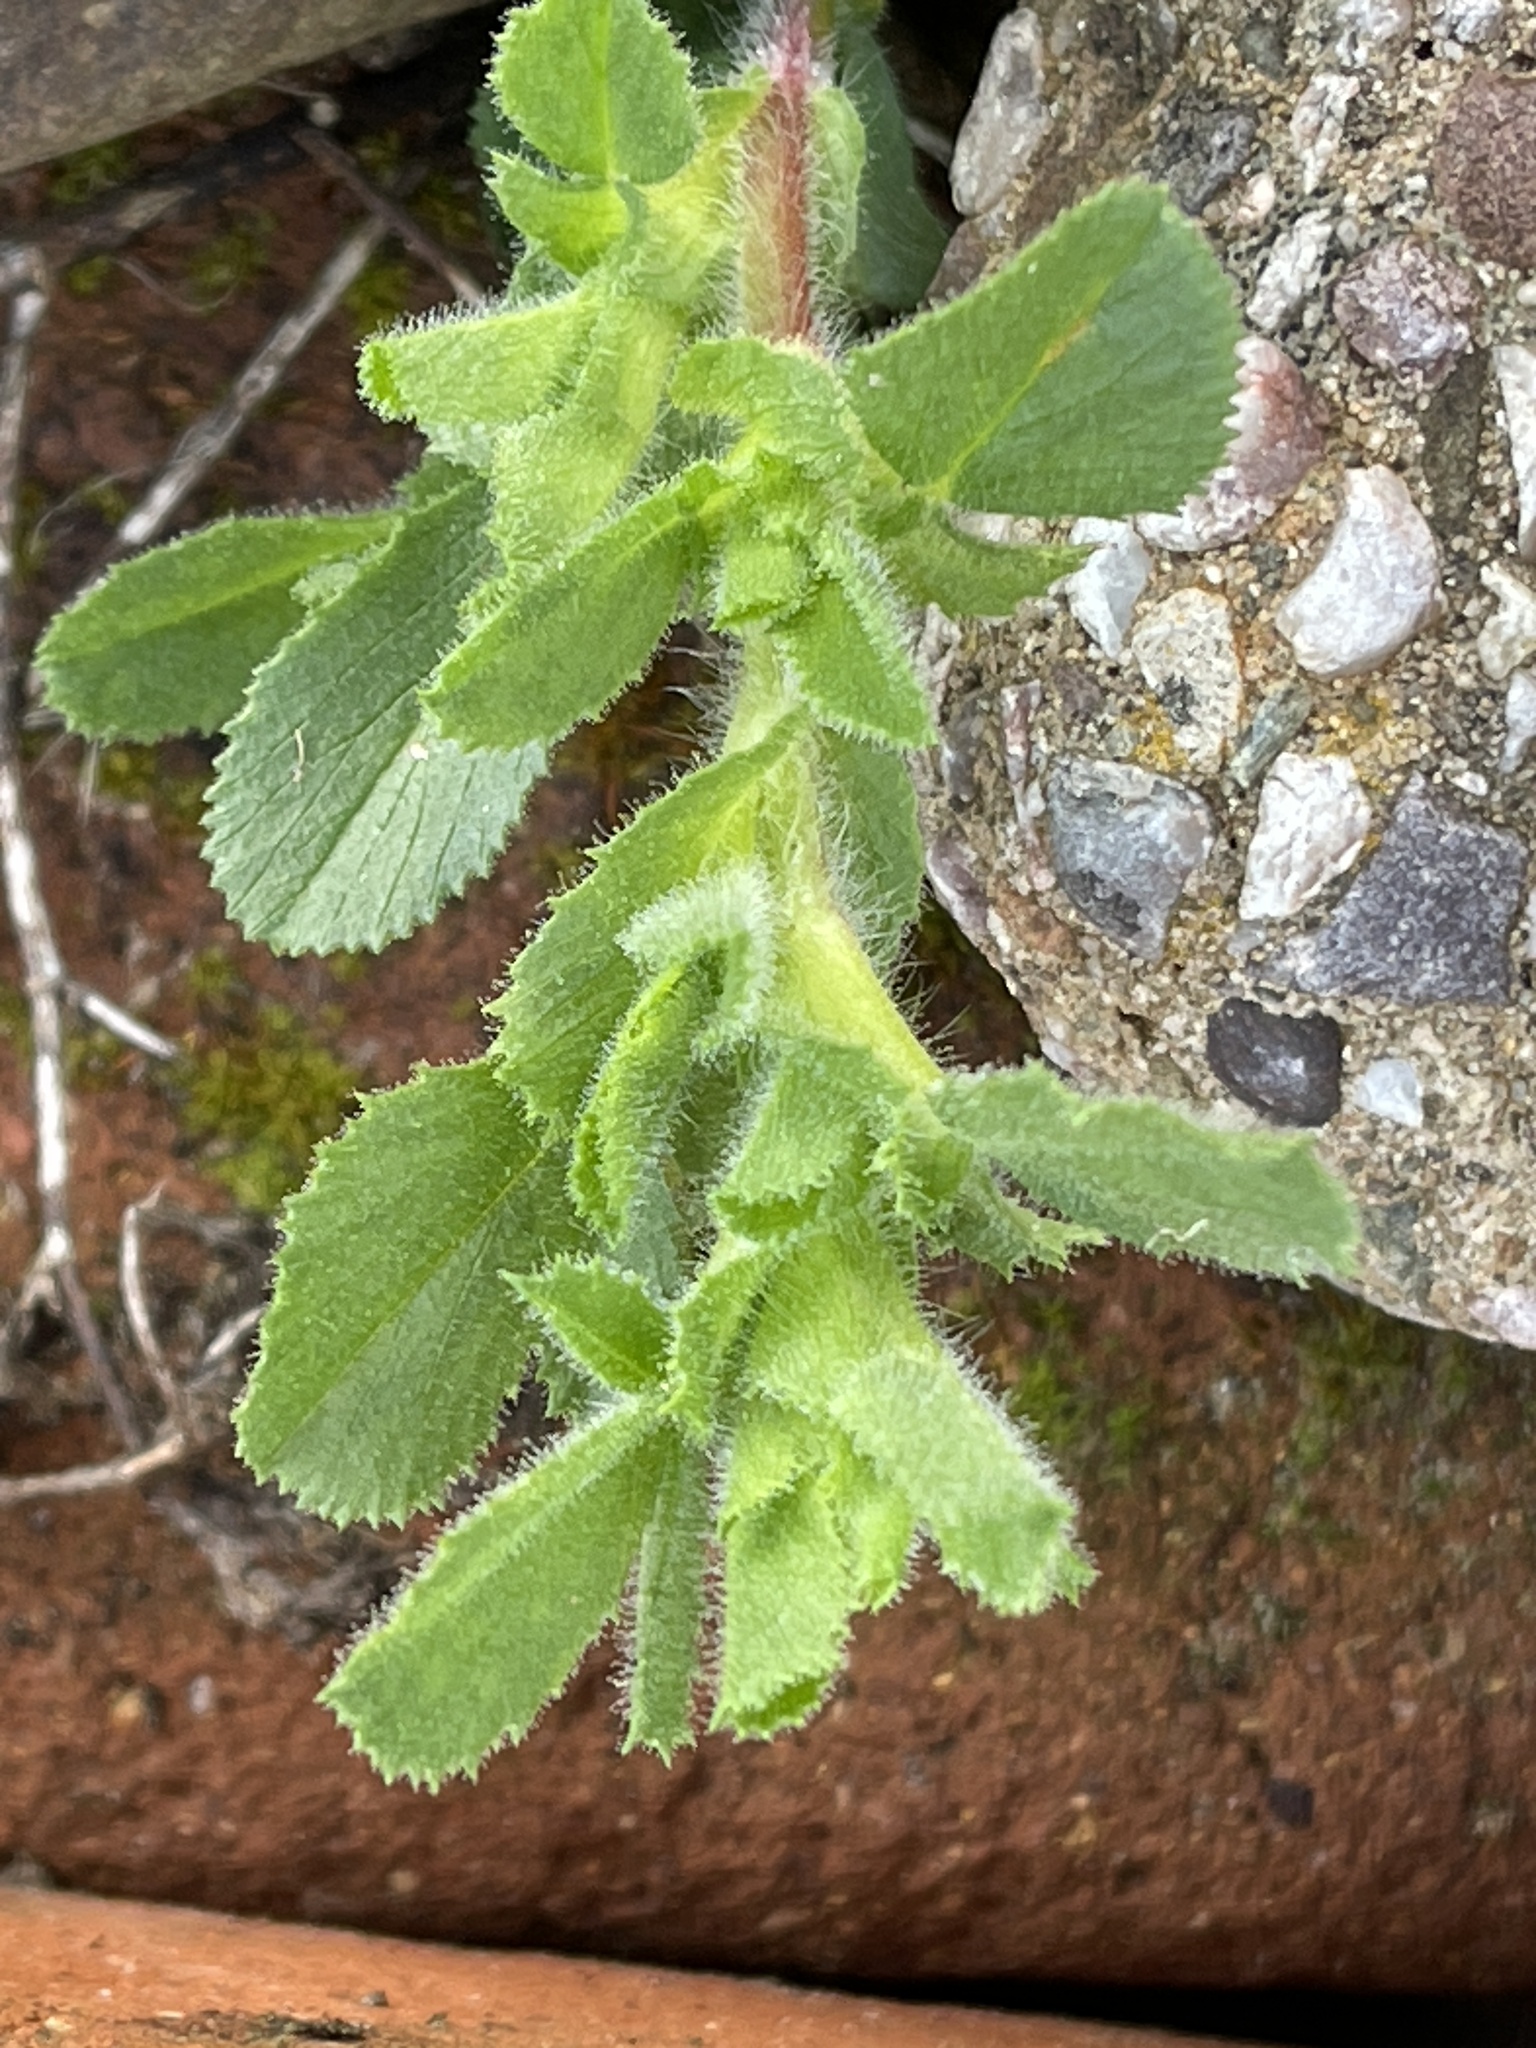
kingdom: Plantae
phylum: Tracheophyta
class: Magnoliopsida
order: Fabales
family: Fabaceae
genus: Ononis
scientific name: Ononis spinosa
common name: Spiny restharrow
